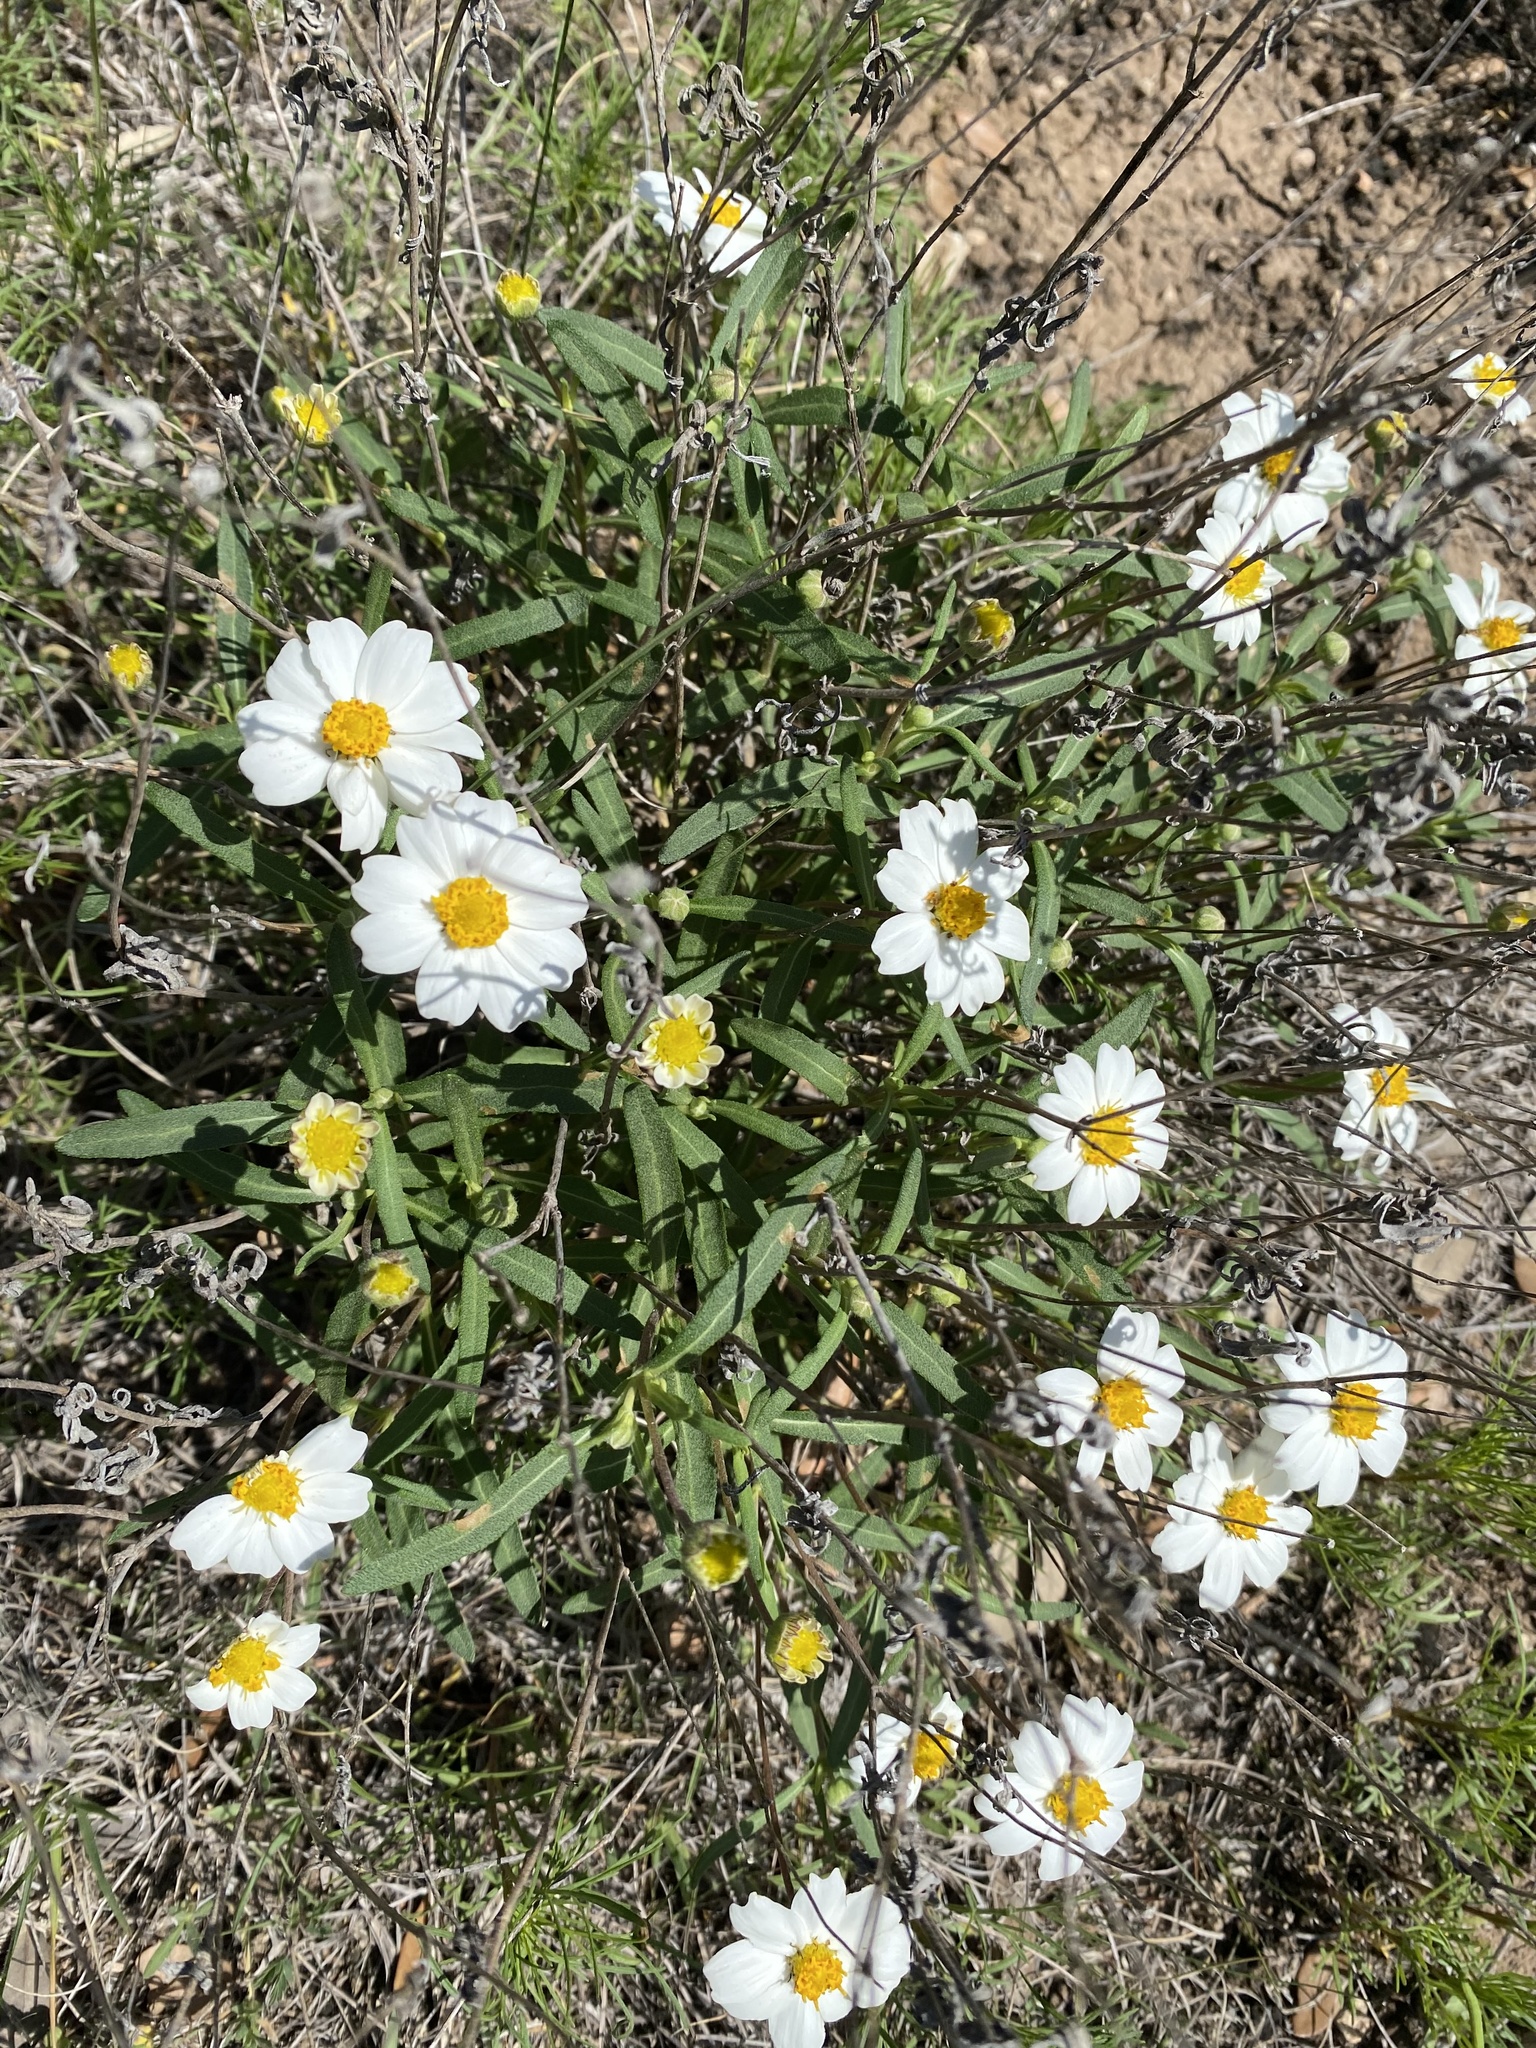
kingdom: Plantae
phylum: Tracheophyta
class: Magnoliopsida
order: Asterales
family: Asteraceae
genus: Melampodium
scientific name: Melampodium leucanthum
